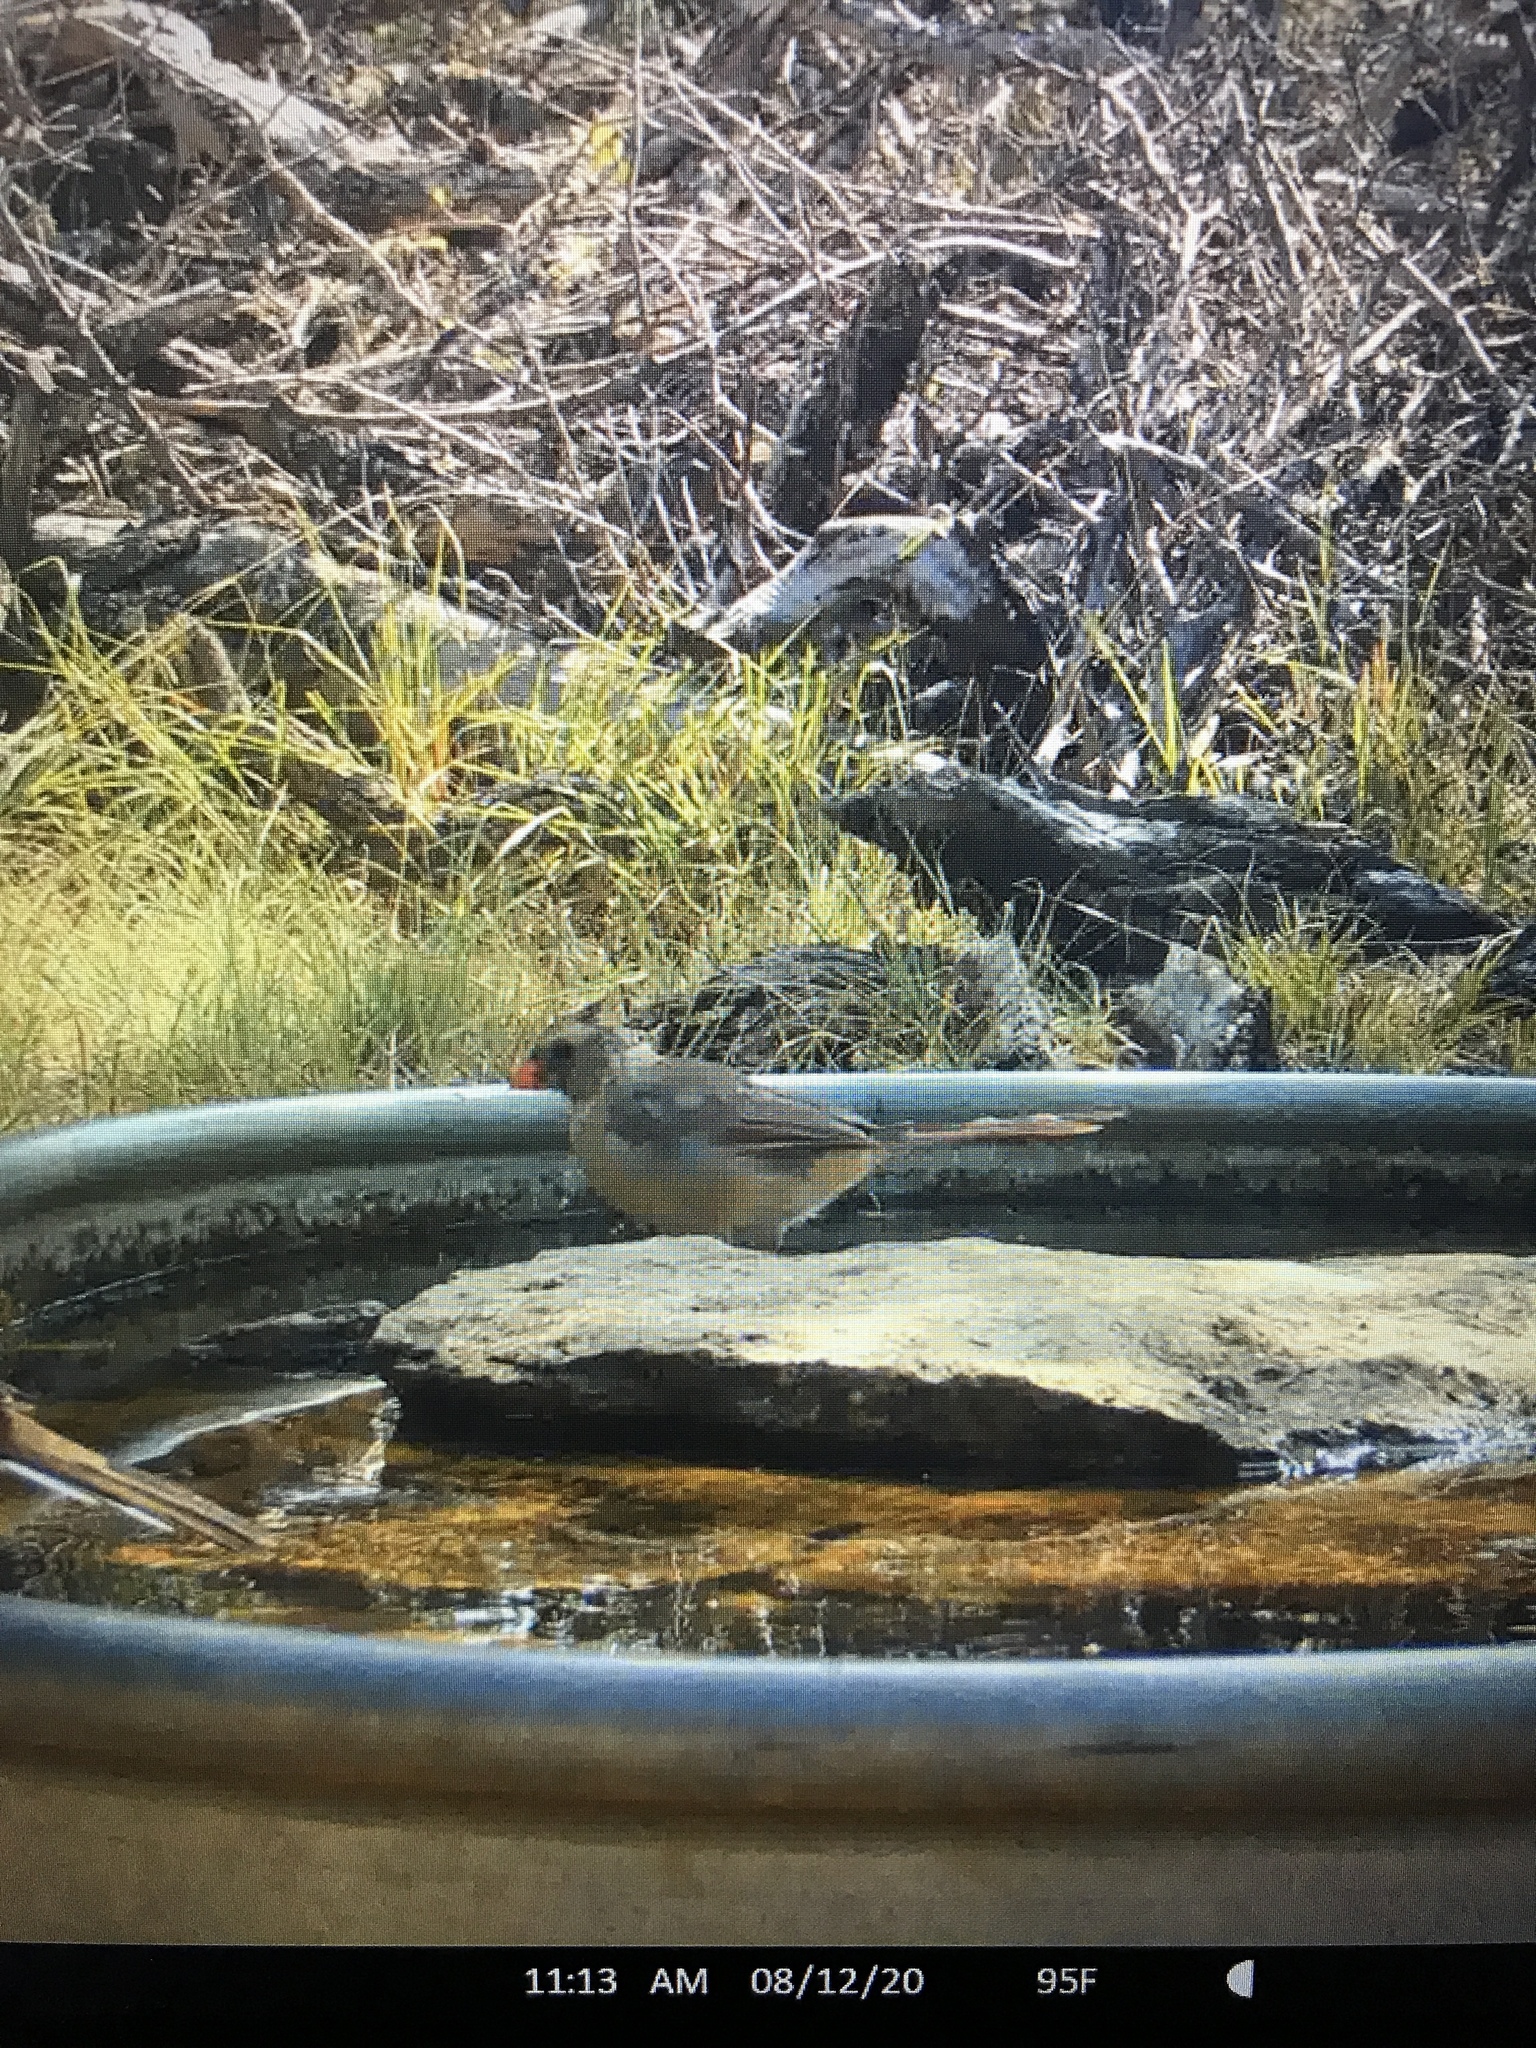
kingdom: Animalia
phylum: Chordata
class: Aves
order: Passeriformes
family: Cardinalidae
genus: Cardinalis
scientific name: Cardinalis cardinalis
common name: Northern cardinal
